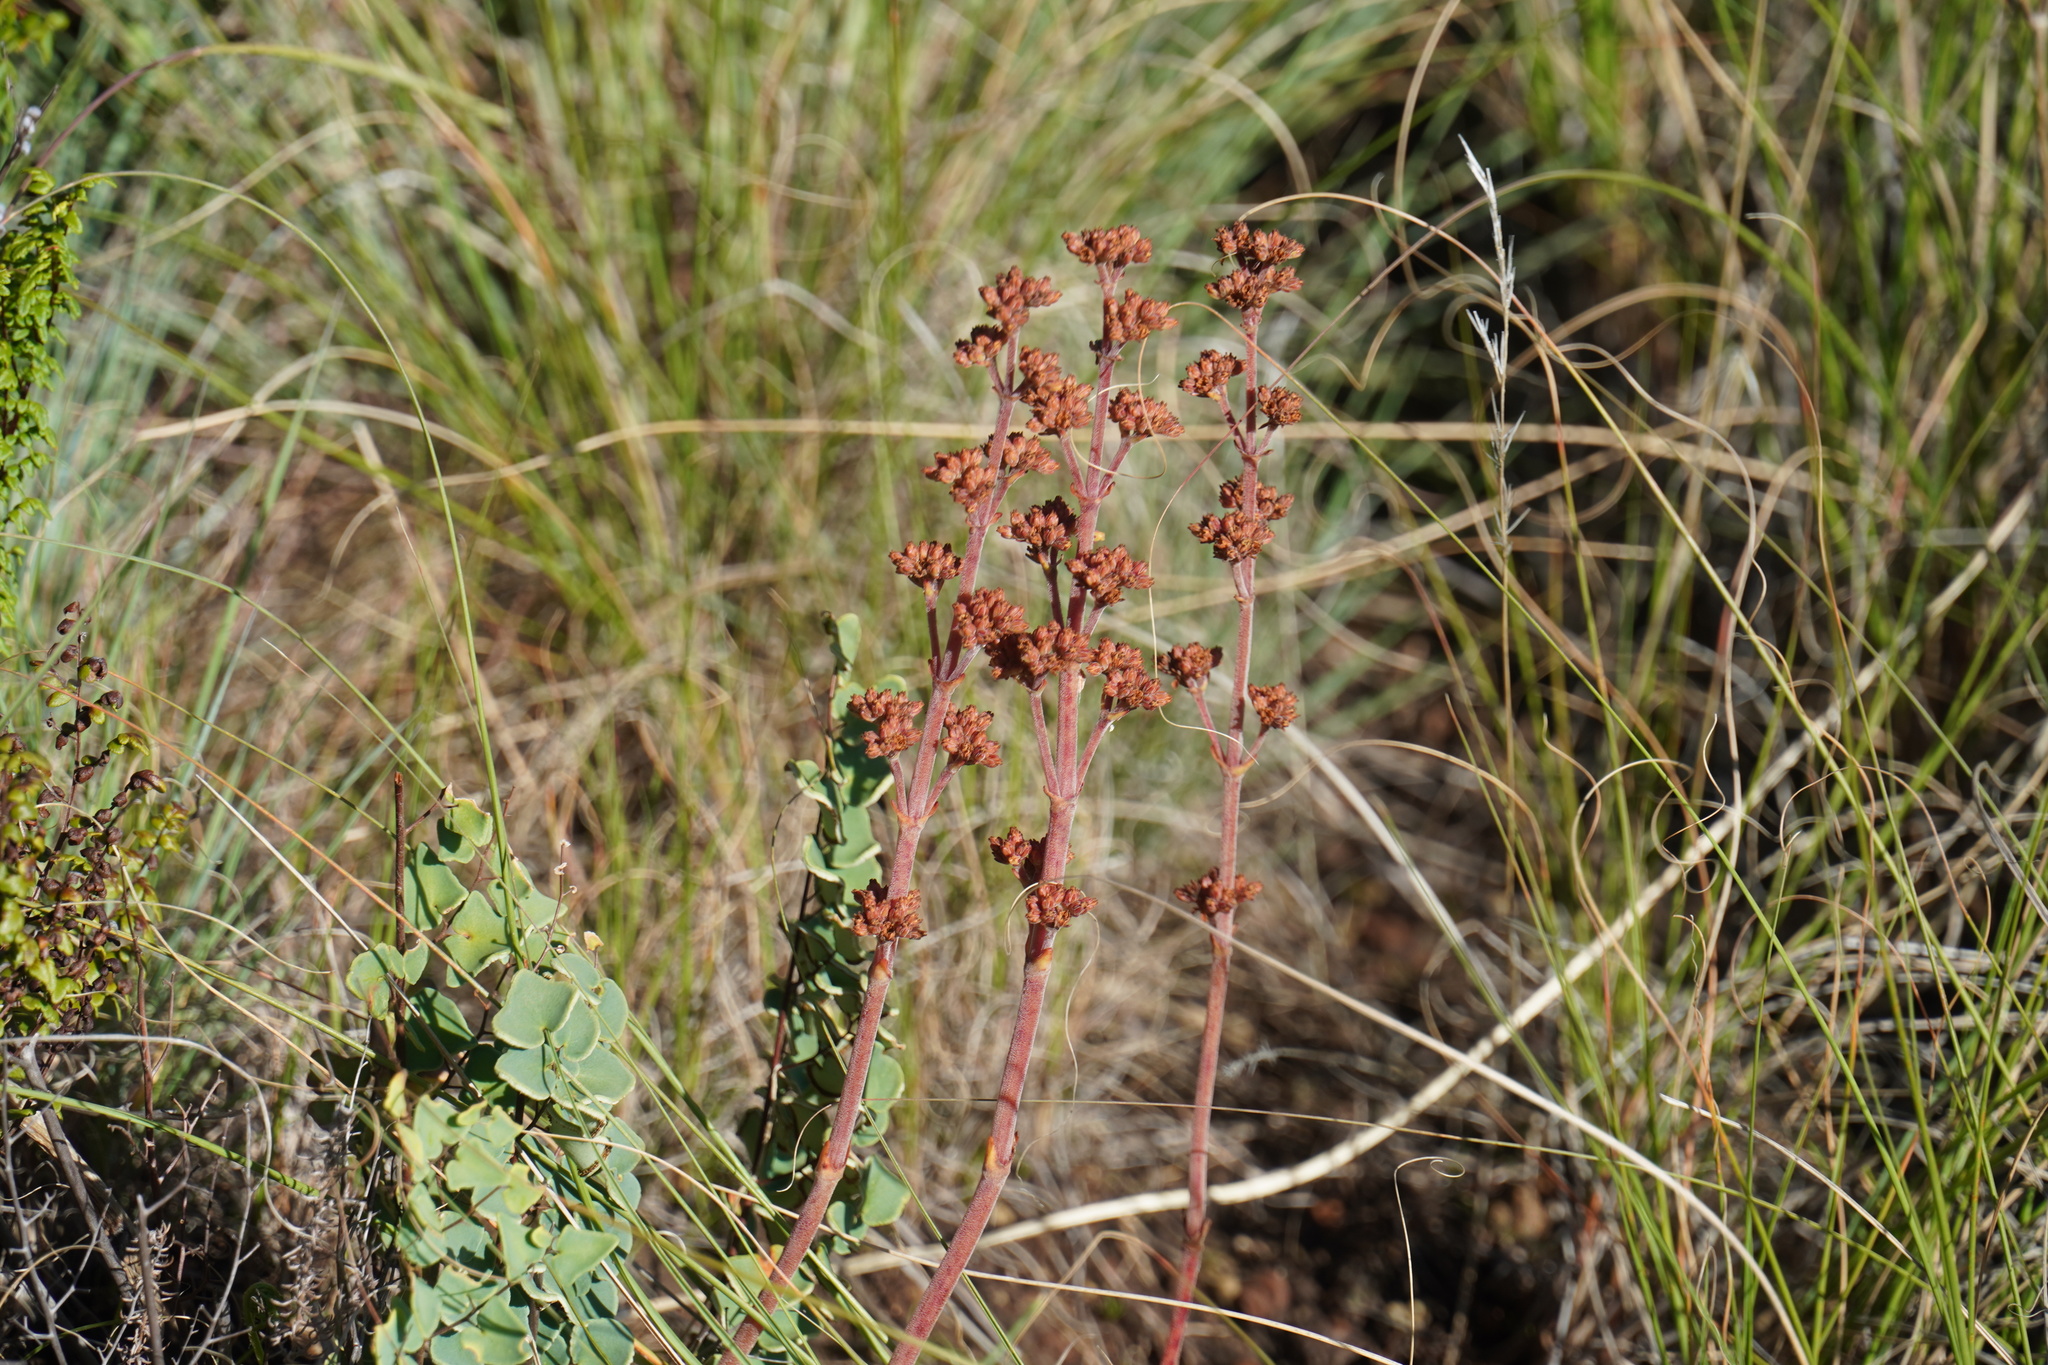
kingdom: Plantae
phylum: Tracheophyta
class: Magnoliopsida
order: Saxifragales
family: Crassulaceae
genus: Crassula
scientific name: Crassula nudicaulis
